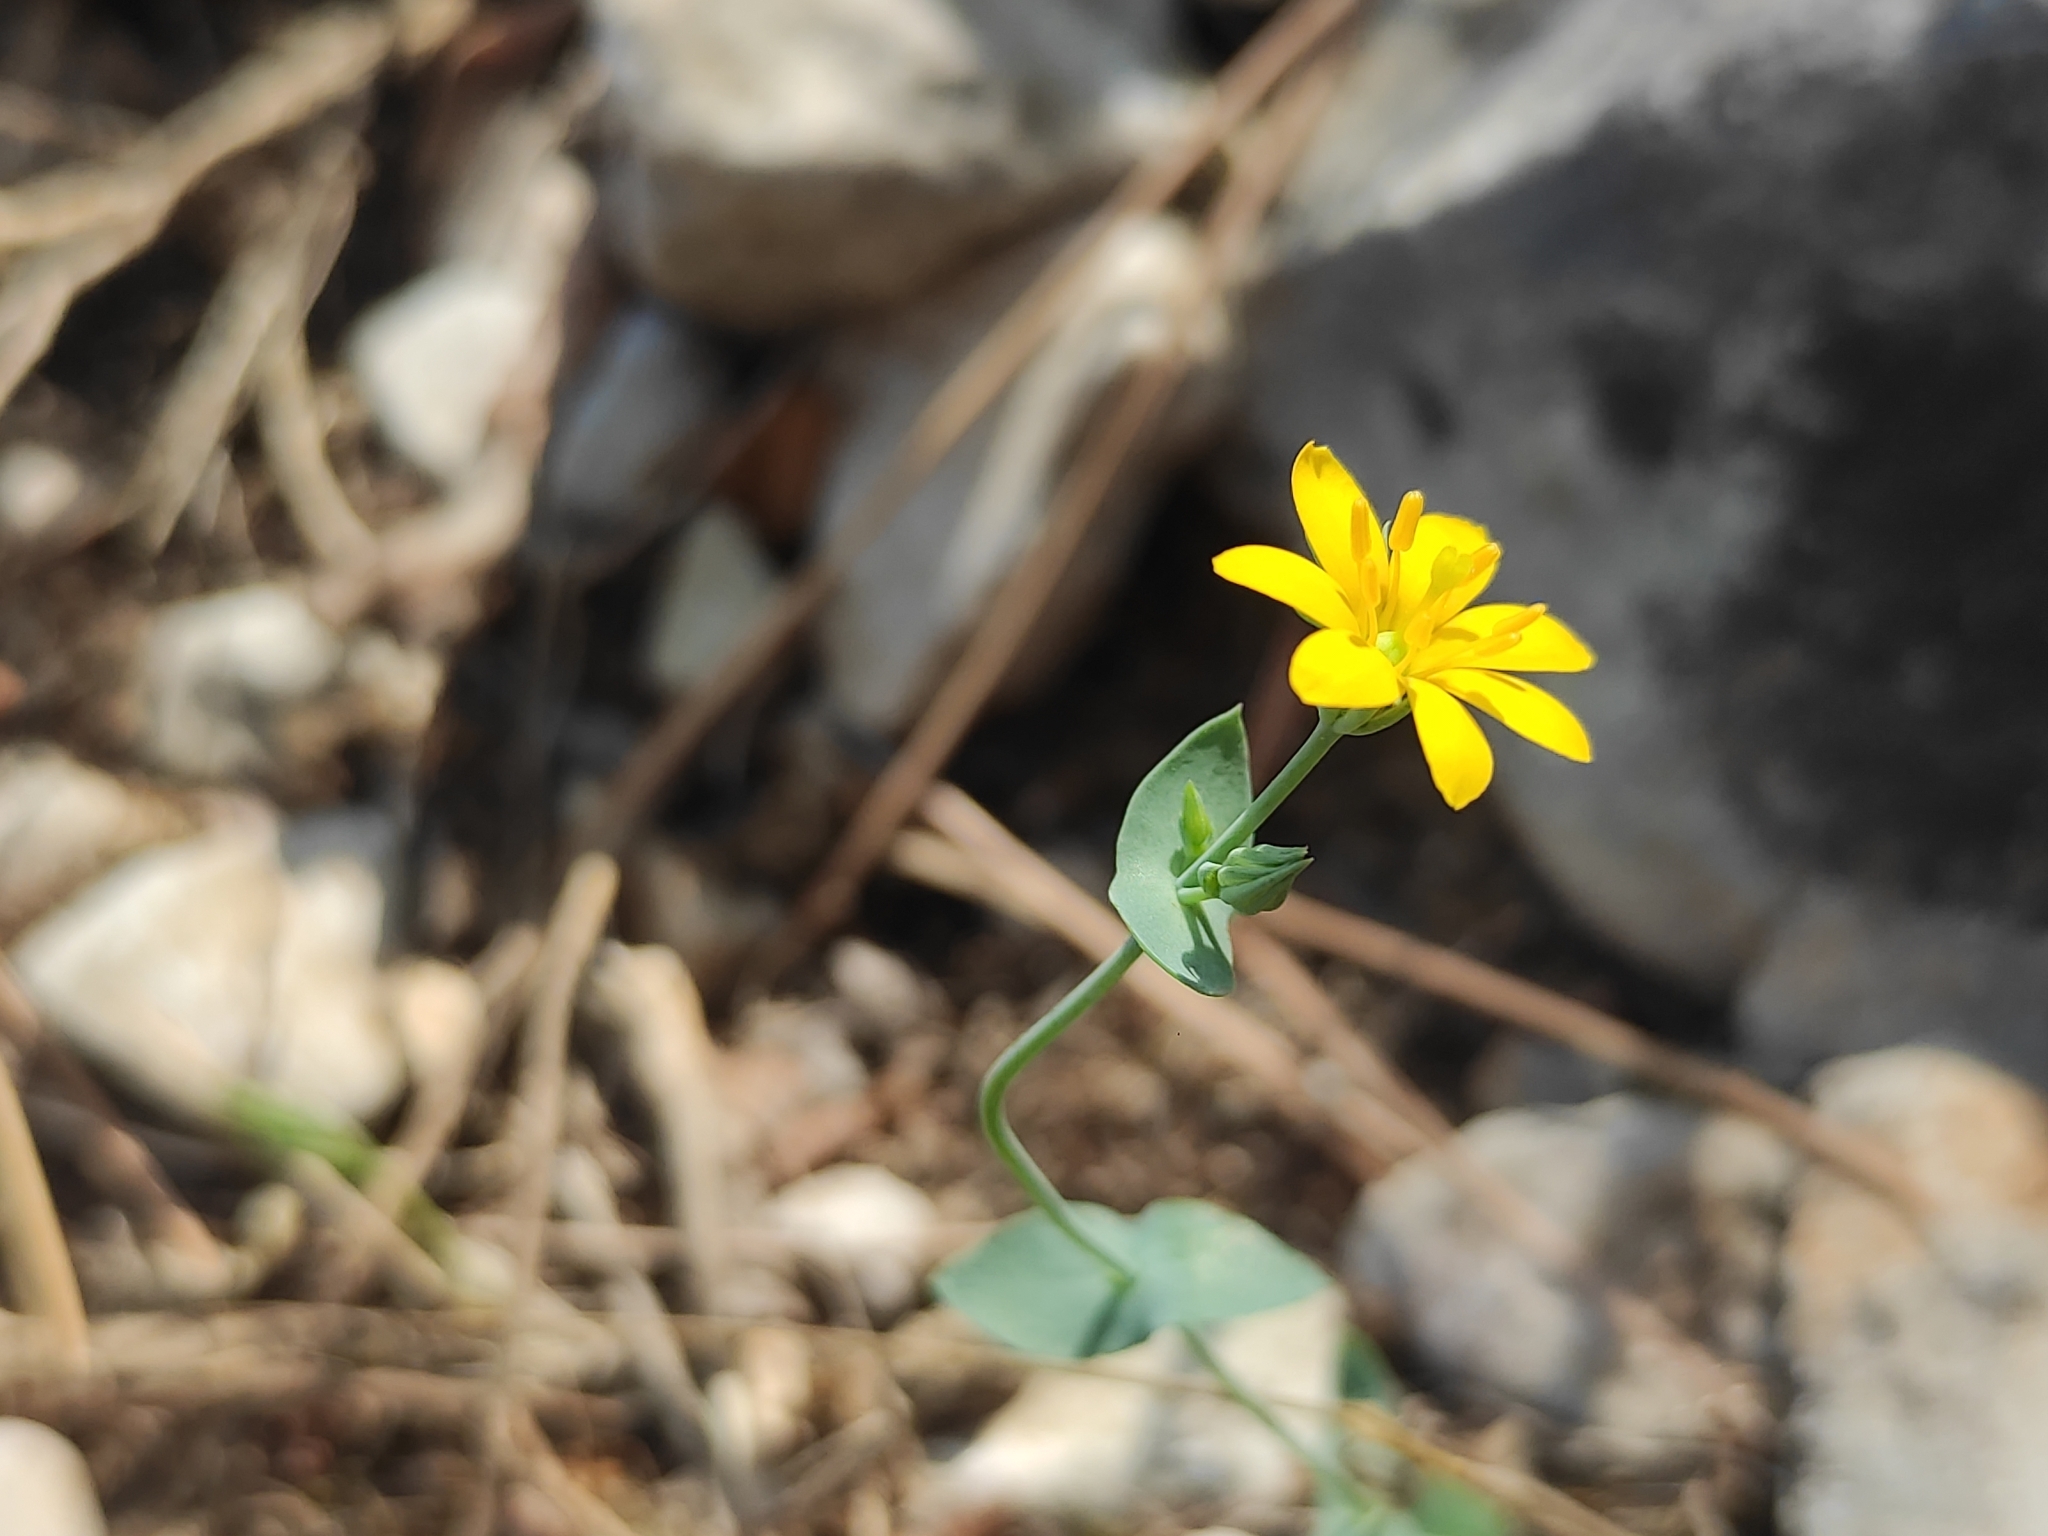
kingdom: Plantae
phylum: Tracheophyta
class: Magnoliopsida
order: Gentianales
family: Gentianaceae
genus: Blackstonia
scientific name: Blackstonia perfoliata
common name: Yellow-wort
